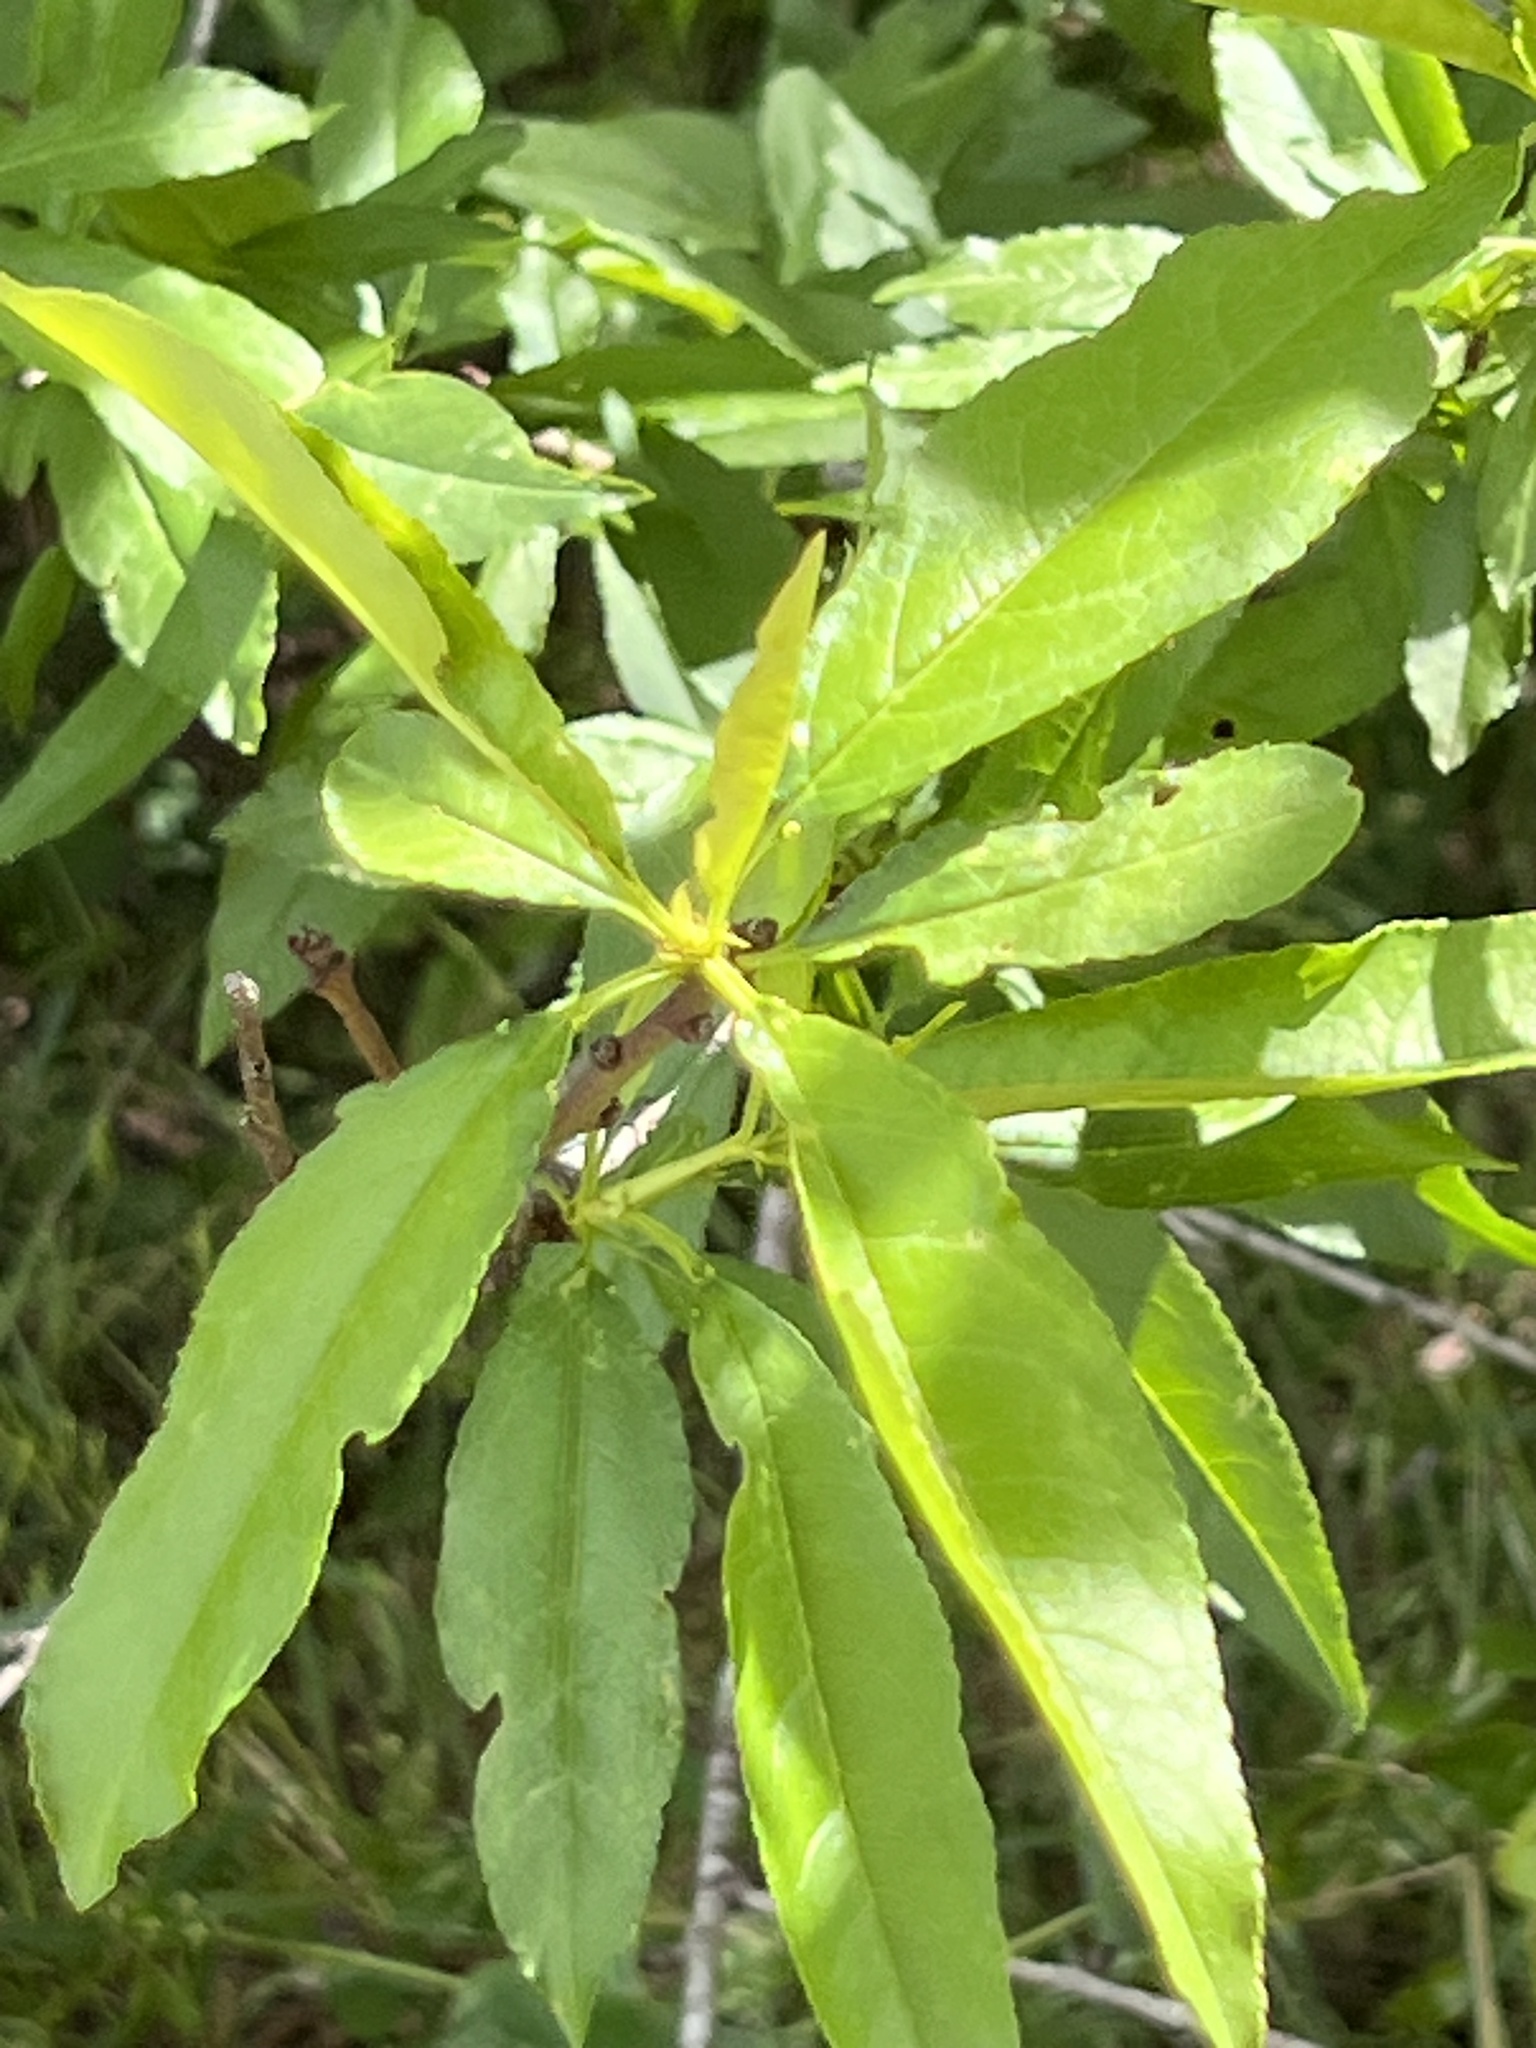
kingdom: Plantae
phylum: Tracheophyta
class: Magnoliopsida
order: Rosales
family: Rosaceae
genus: Prunus
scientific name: Prunus persica
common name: Peach
